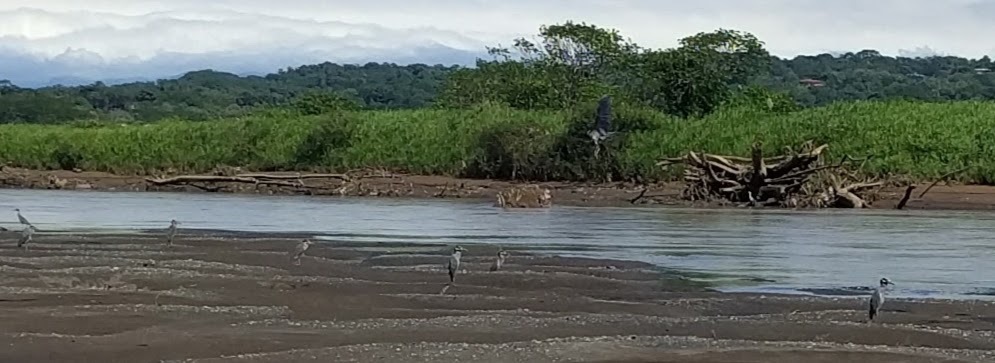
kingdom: Animalia
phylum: Chordata
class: Aves
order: Pelecaniformes
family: Ardeidae
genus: Nyctanassa
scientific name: Nyctanassa violacea
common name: Yellow-crowned night heron
